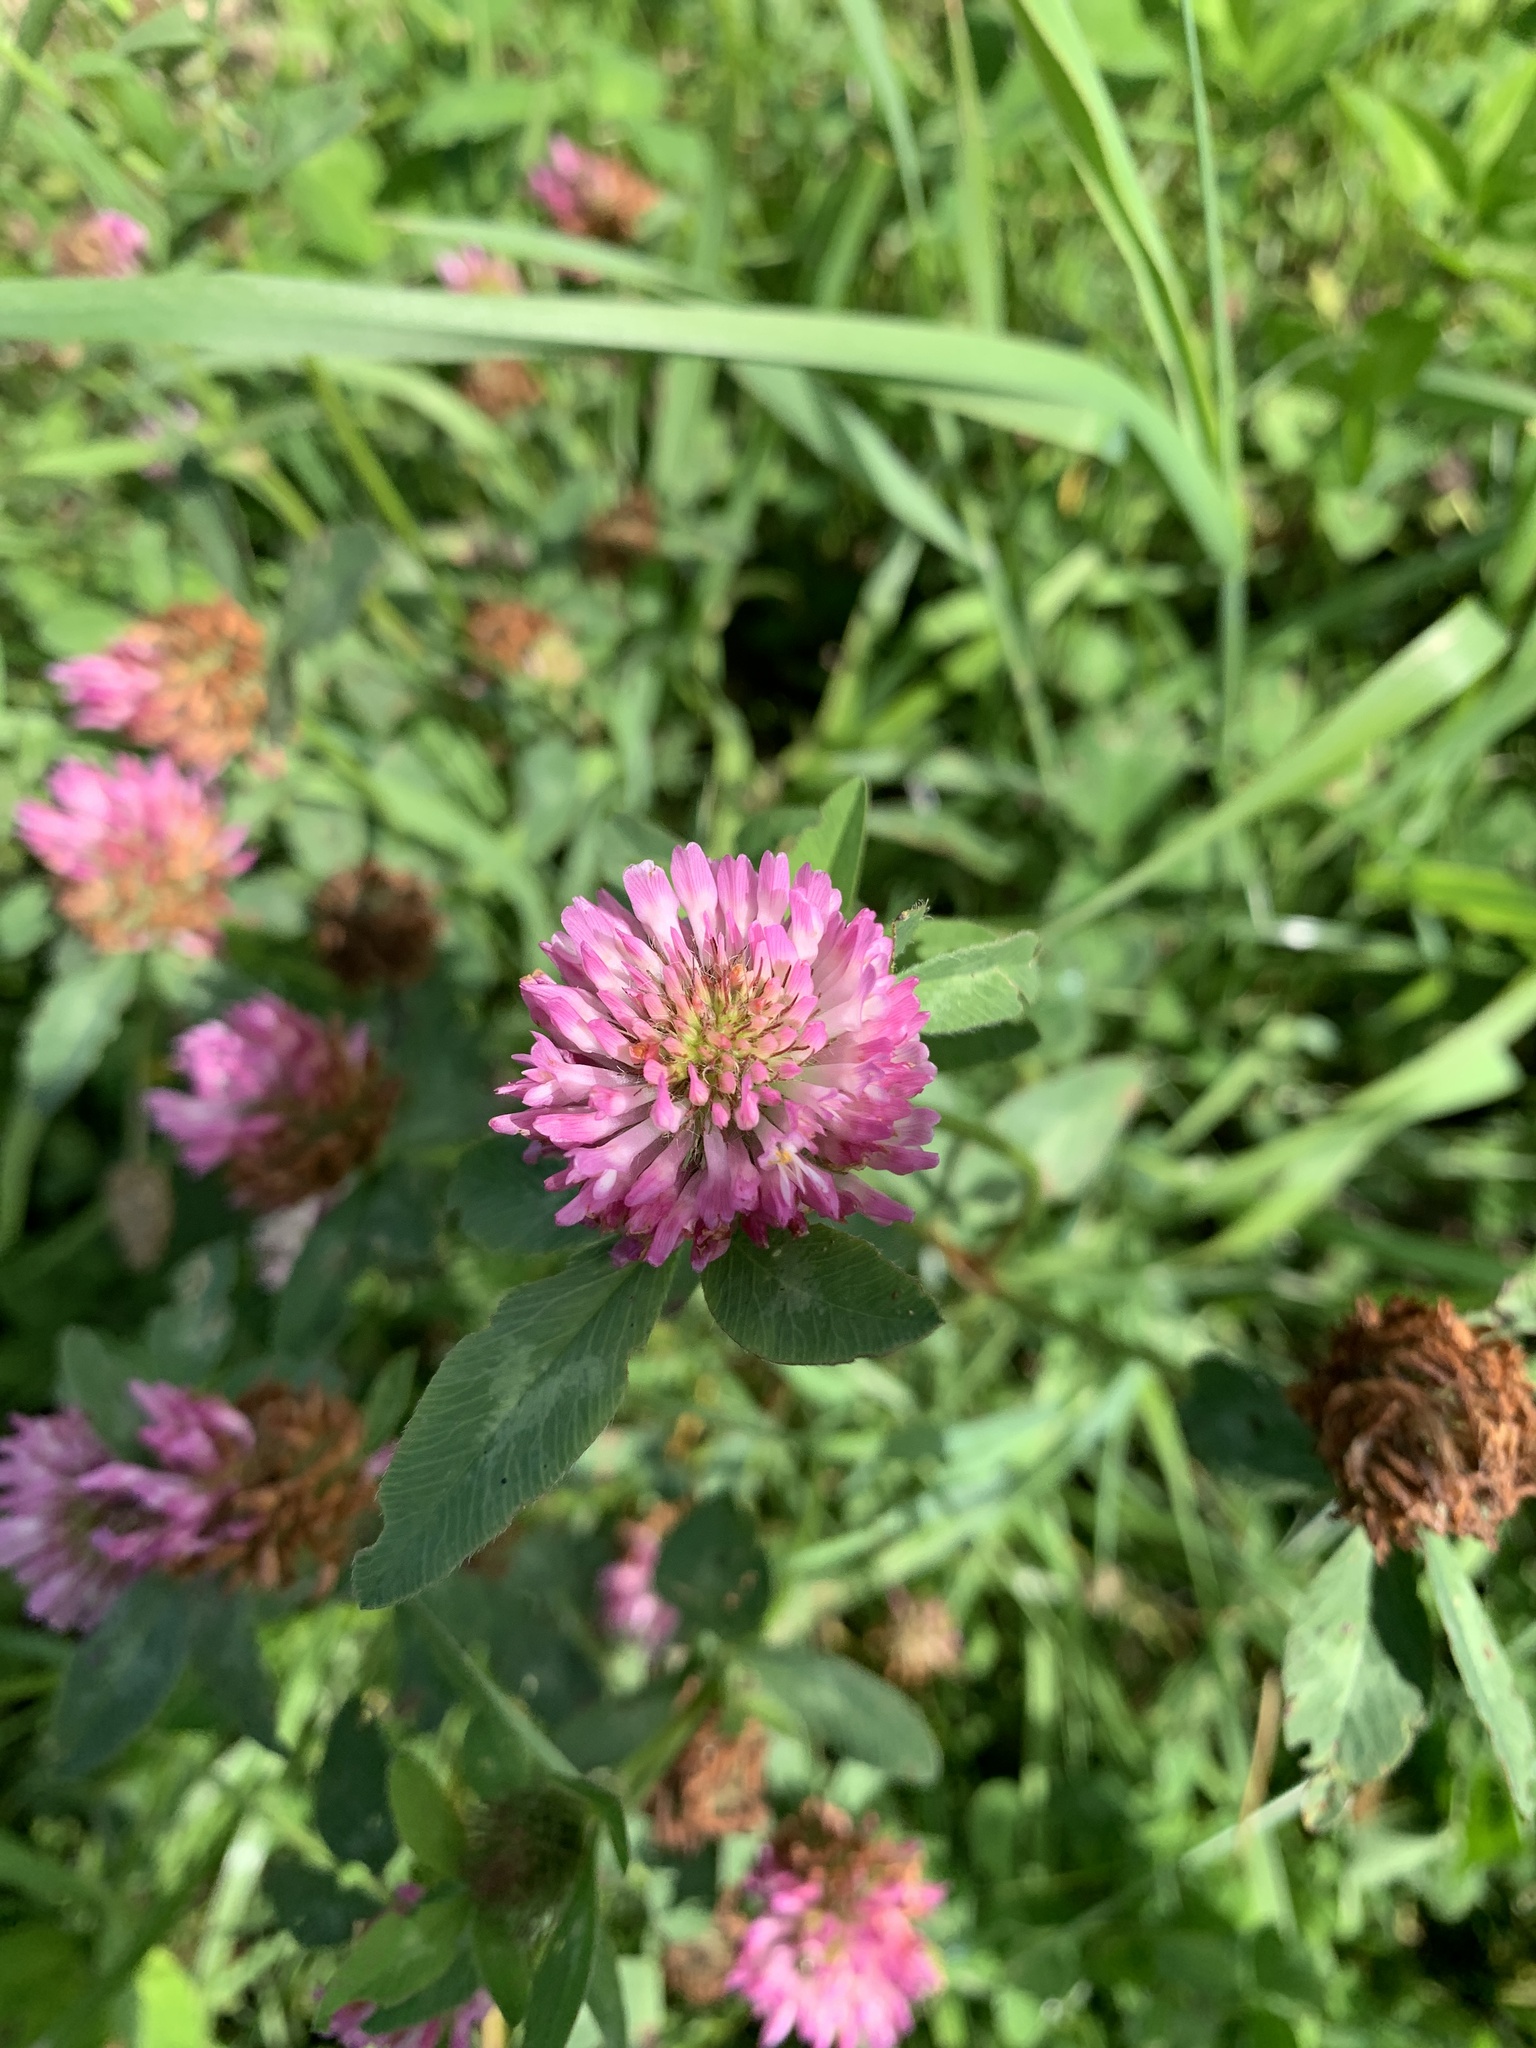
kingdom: Plantae
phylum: Tracheophyta
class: Magnoliopsida
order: Fabales
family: Fabaceae
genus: Trifolium
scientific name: Trifolium pratense
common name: Red clover
